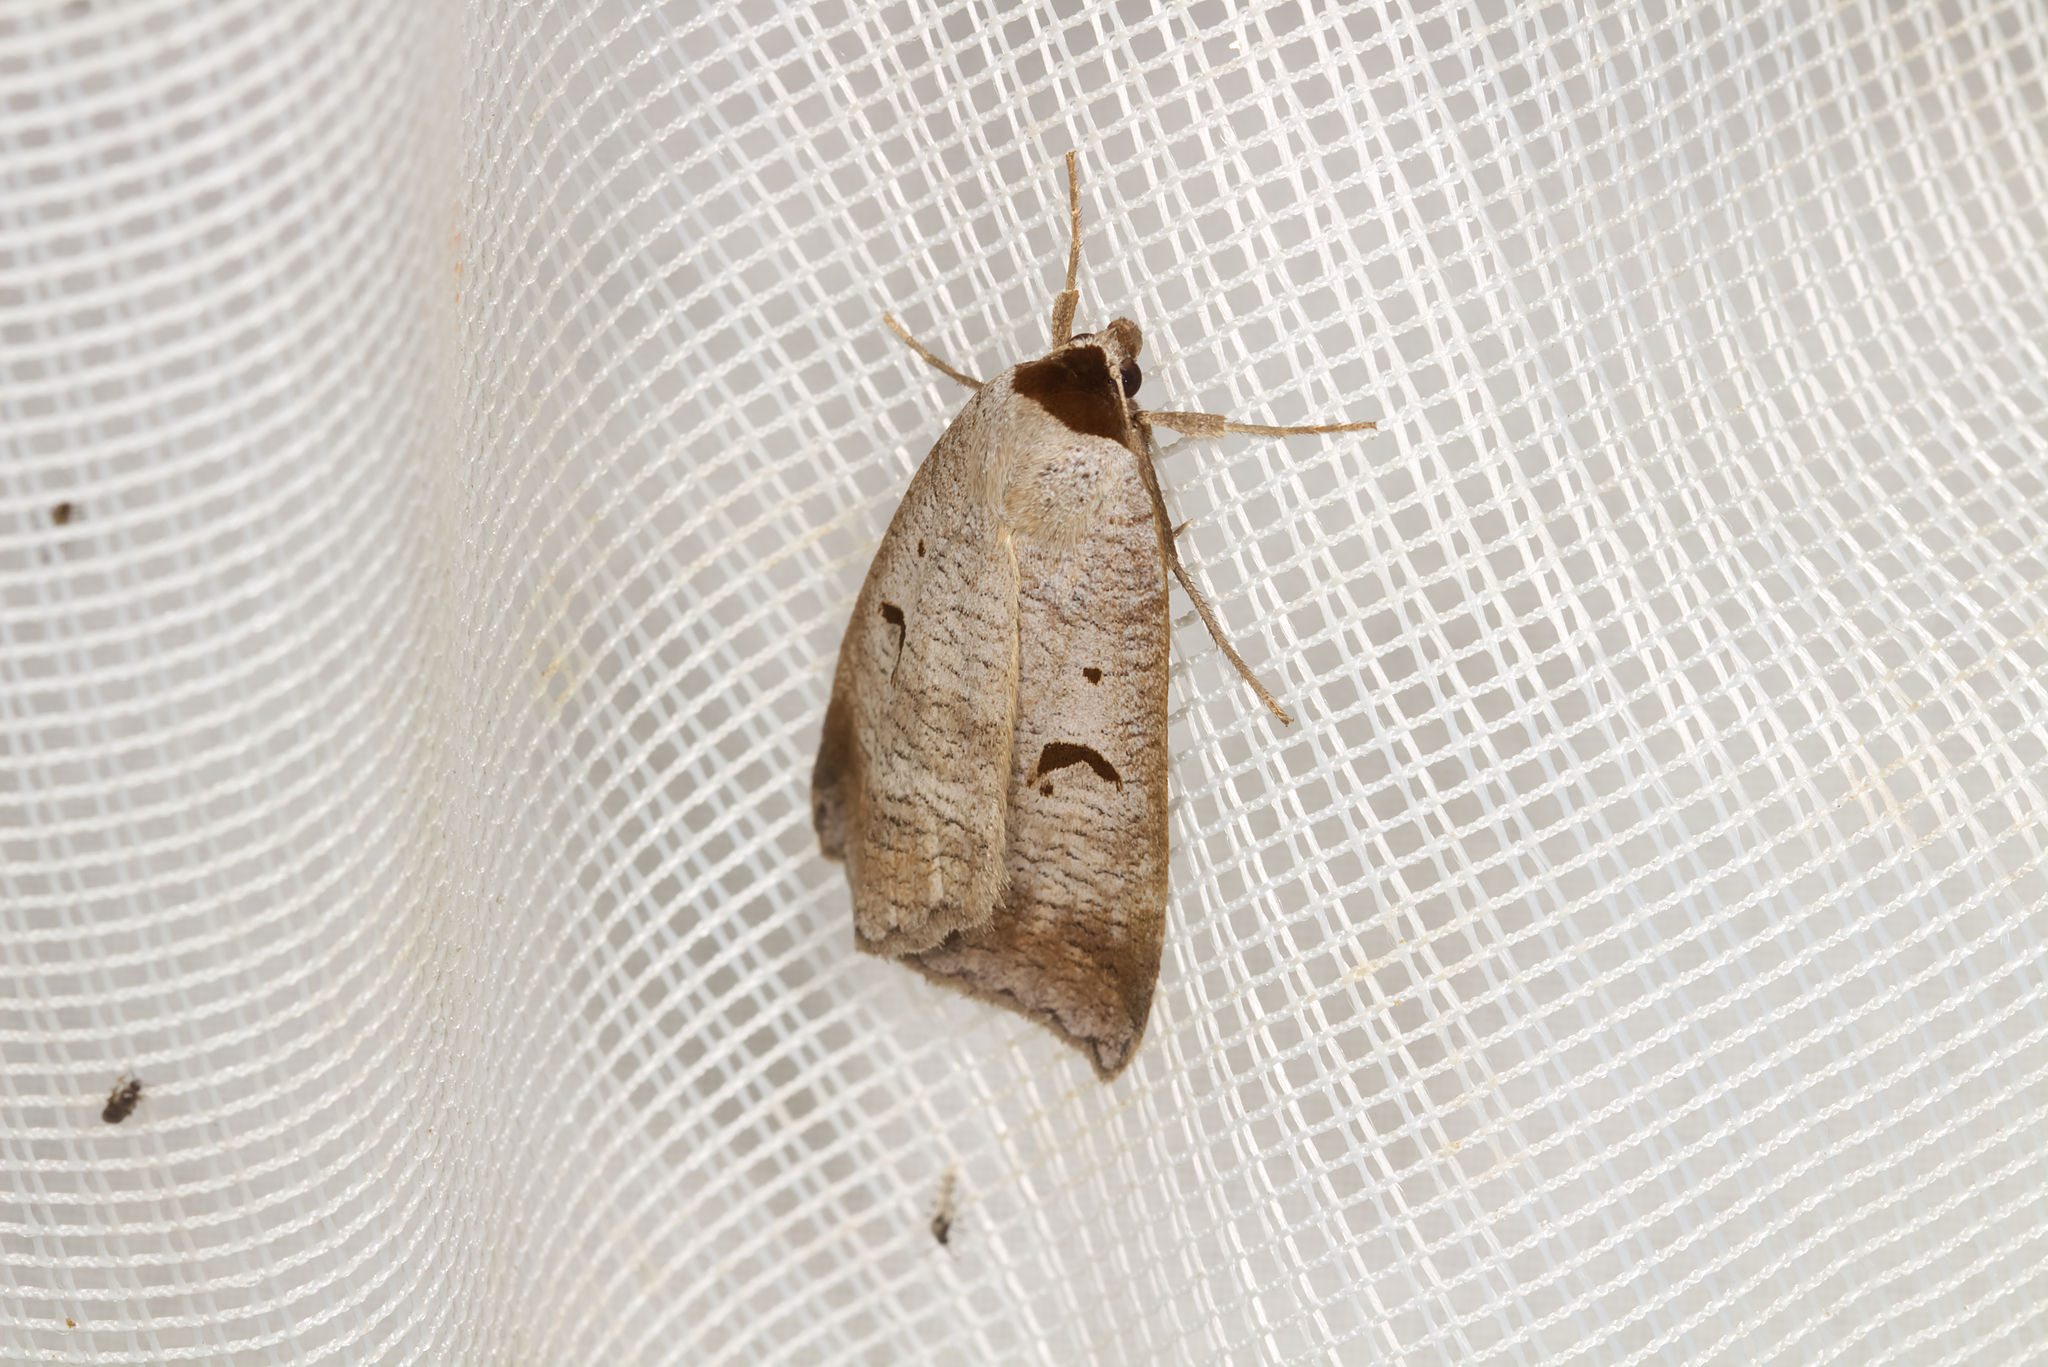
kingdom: Animalia
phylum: Arthropoda
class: Insecta
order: Lepidoptera
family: Erebidae
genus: Lygephila
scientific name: Lygephila pastinum
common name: Blackneck
